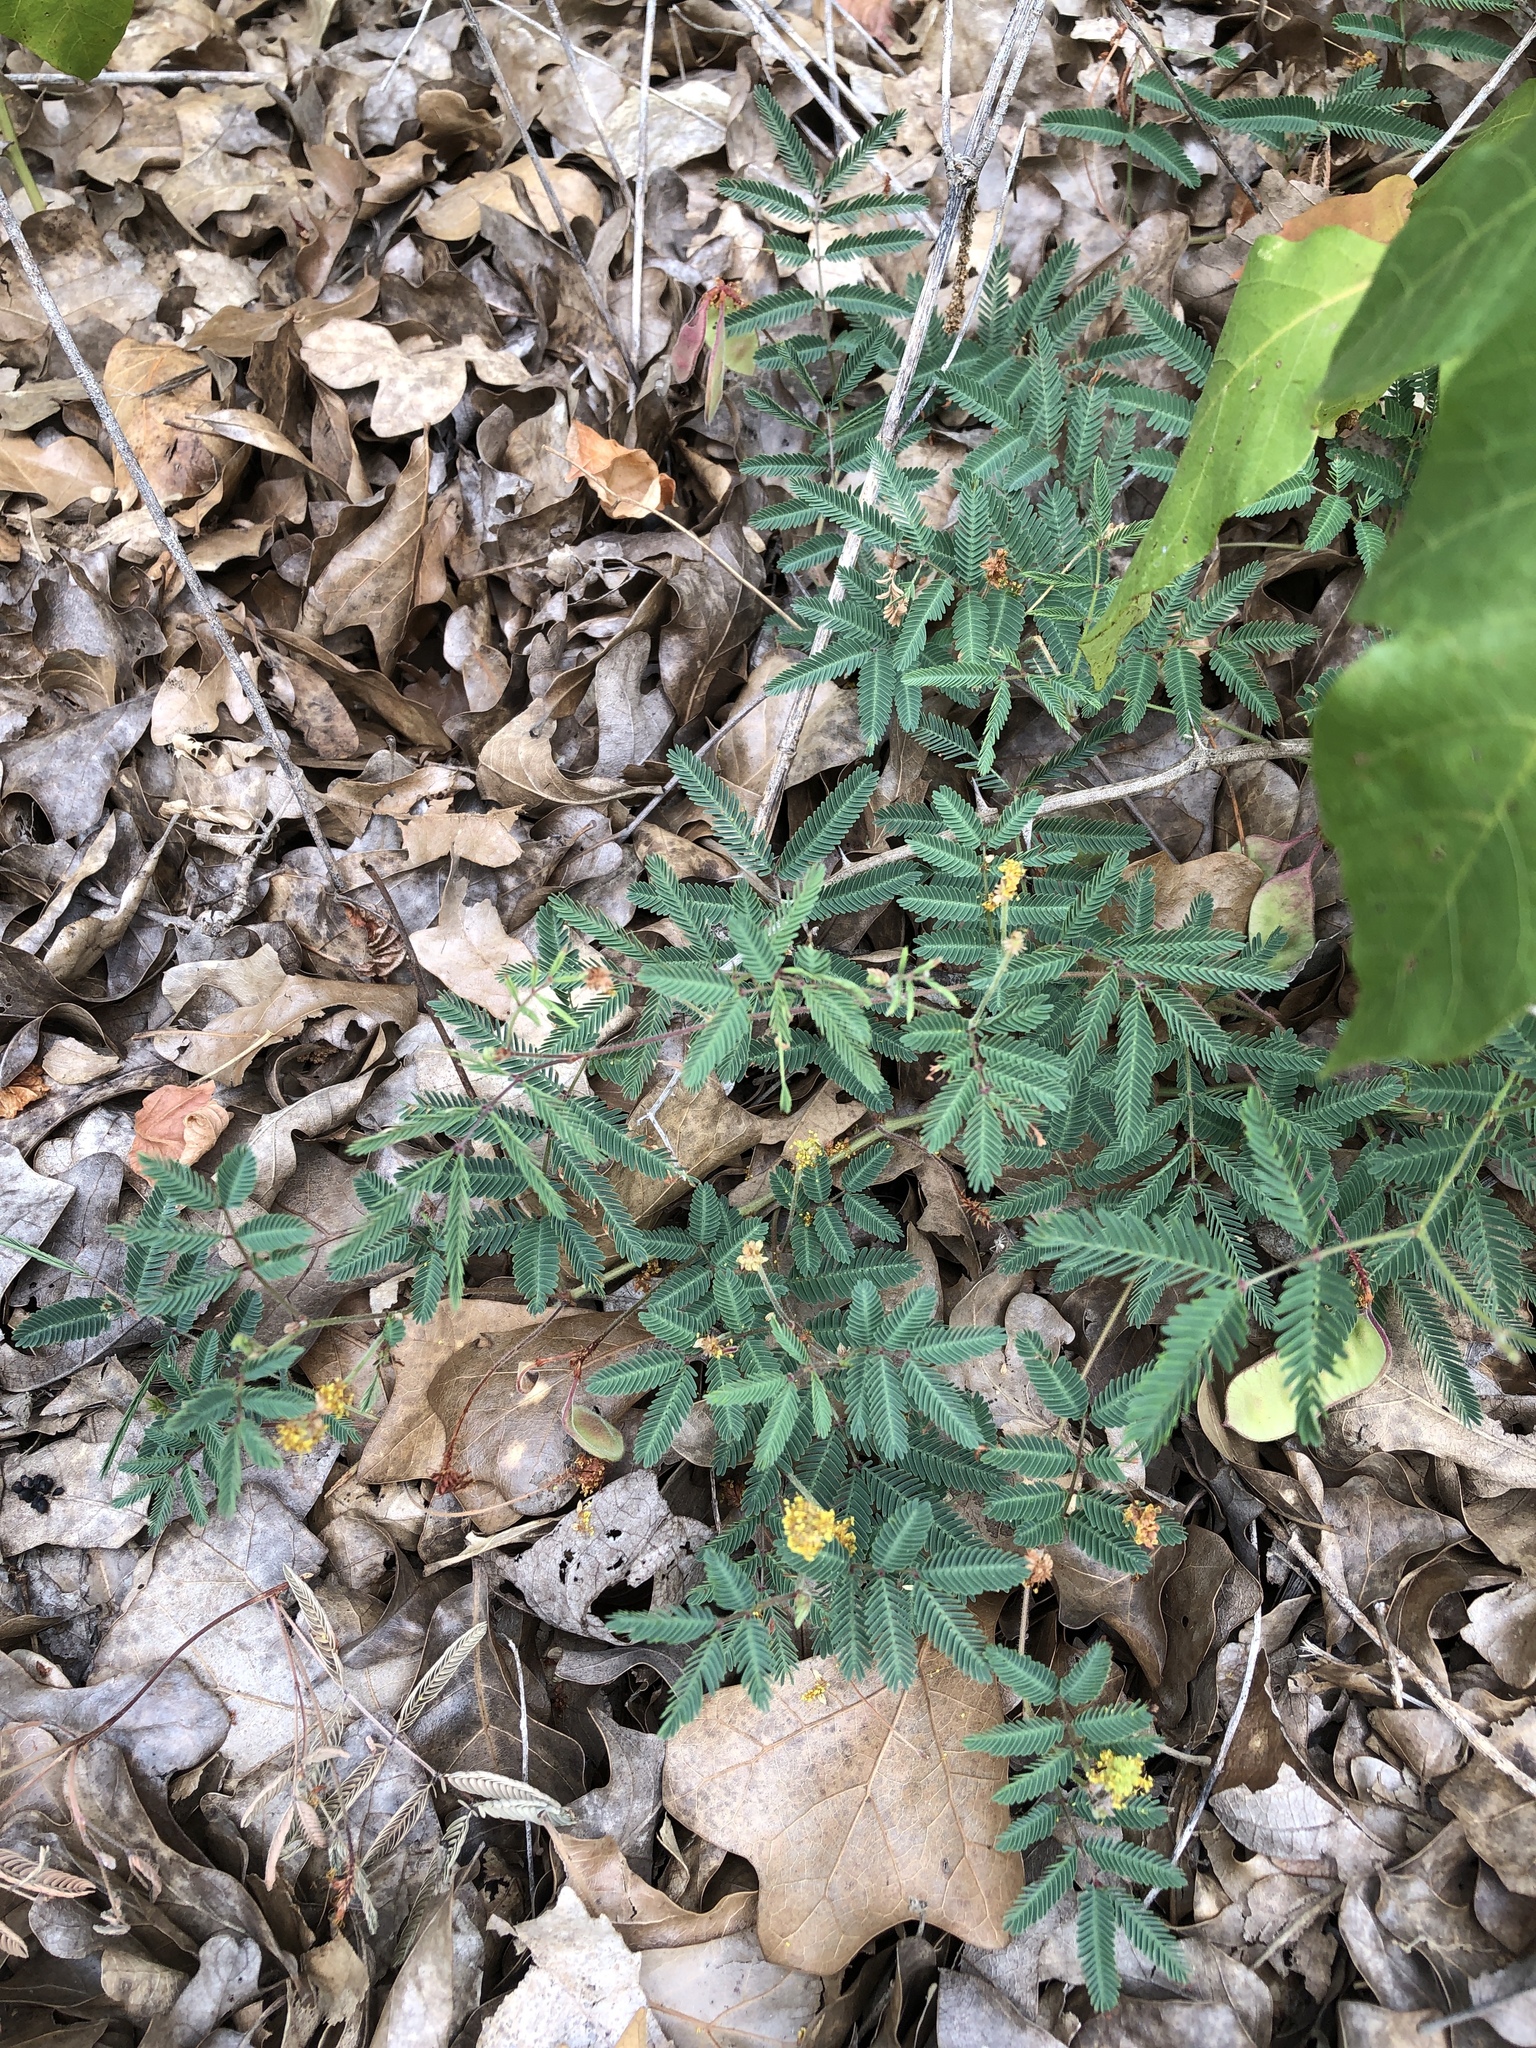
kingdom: Plantae
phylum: Tracheophyta
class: Magnoliopsida
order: Fabales
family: Fabaceae
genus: Neptunia
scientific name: Neptunia lutea
